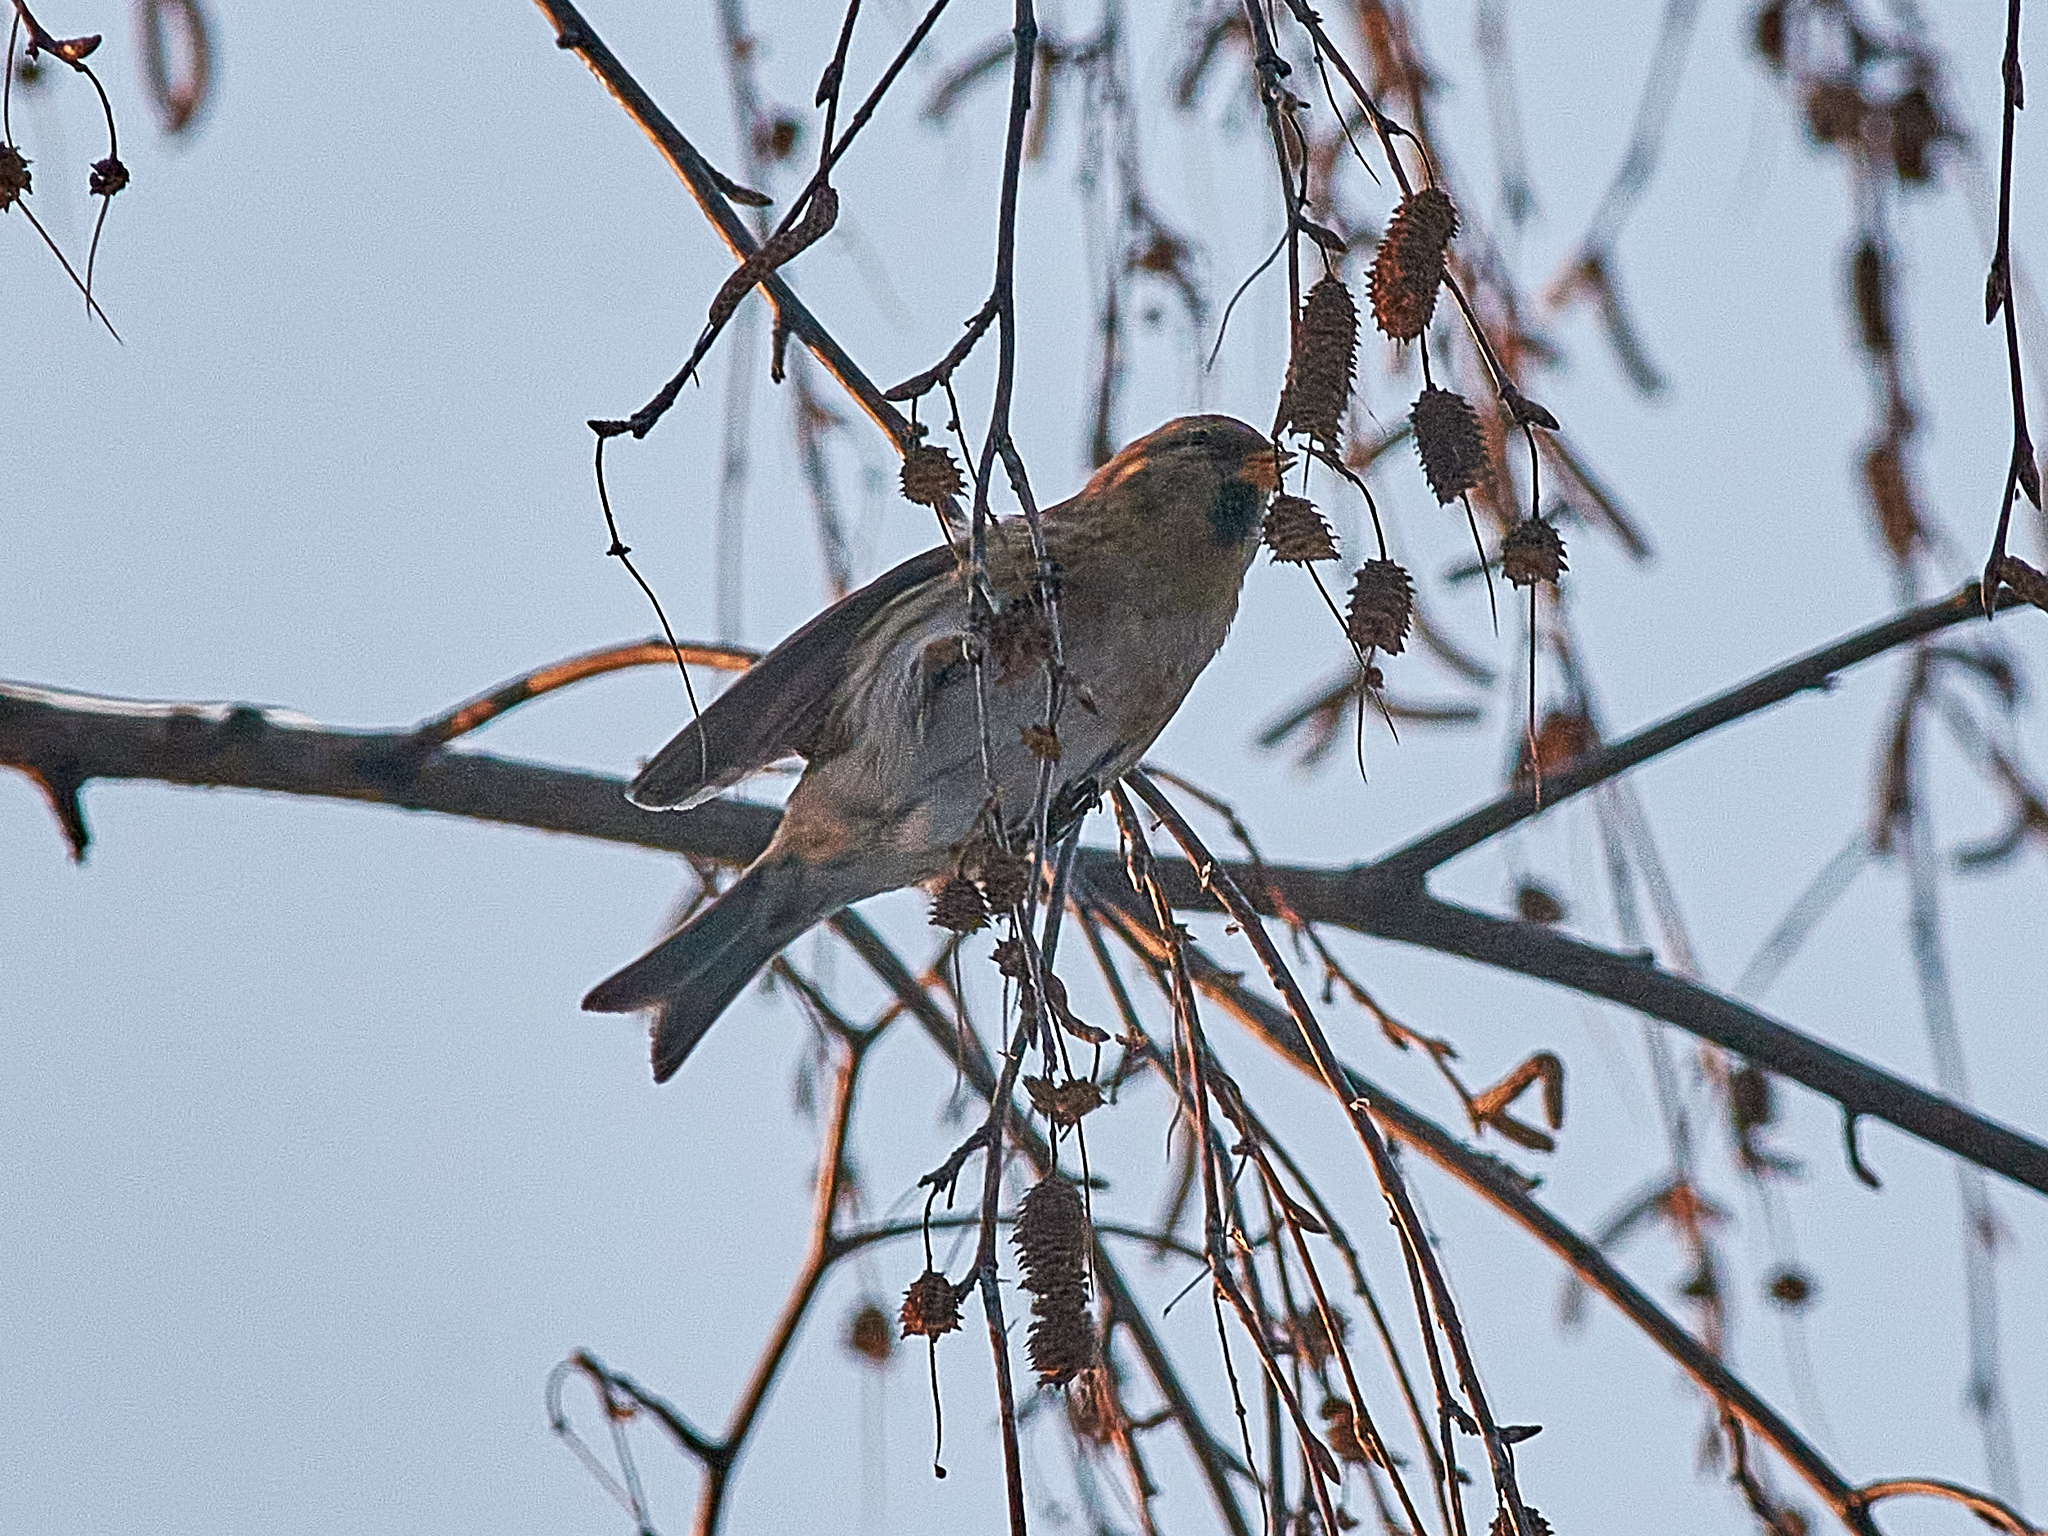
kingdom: Animalia
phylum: Chordata
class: Aves
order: Passeriformes
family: Fringillidae
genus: Acanthis
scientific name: Acanthis flammea
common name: Common redpoll
